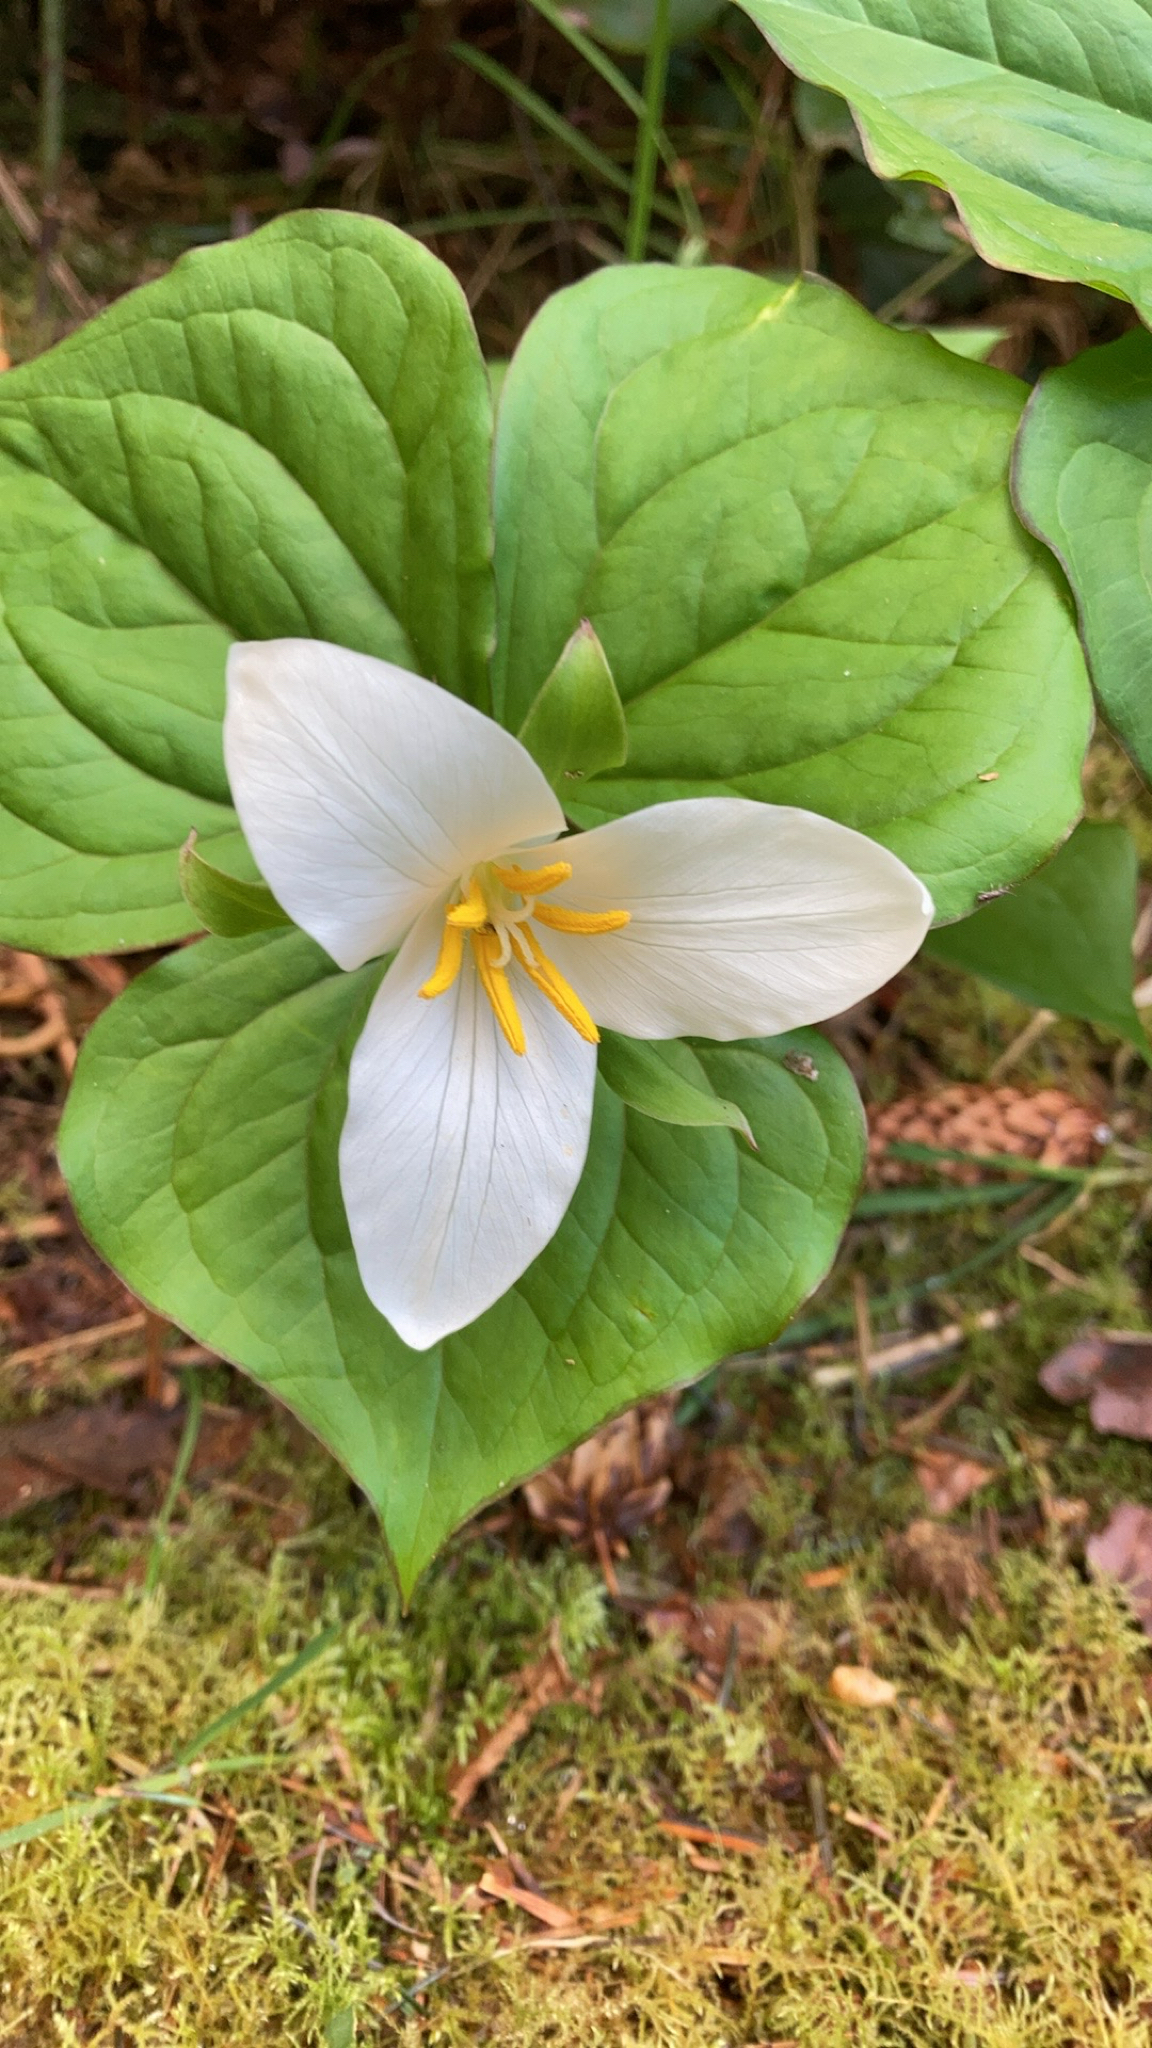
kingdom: Plantae
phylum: Tracheophyta
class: Liliopsida
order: Liliales
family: Melanthiaceae
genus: Trillium
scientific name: Trillium ovatum
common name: Pacific trillium
